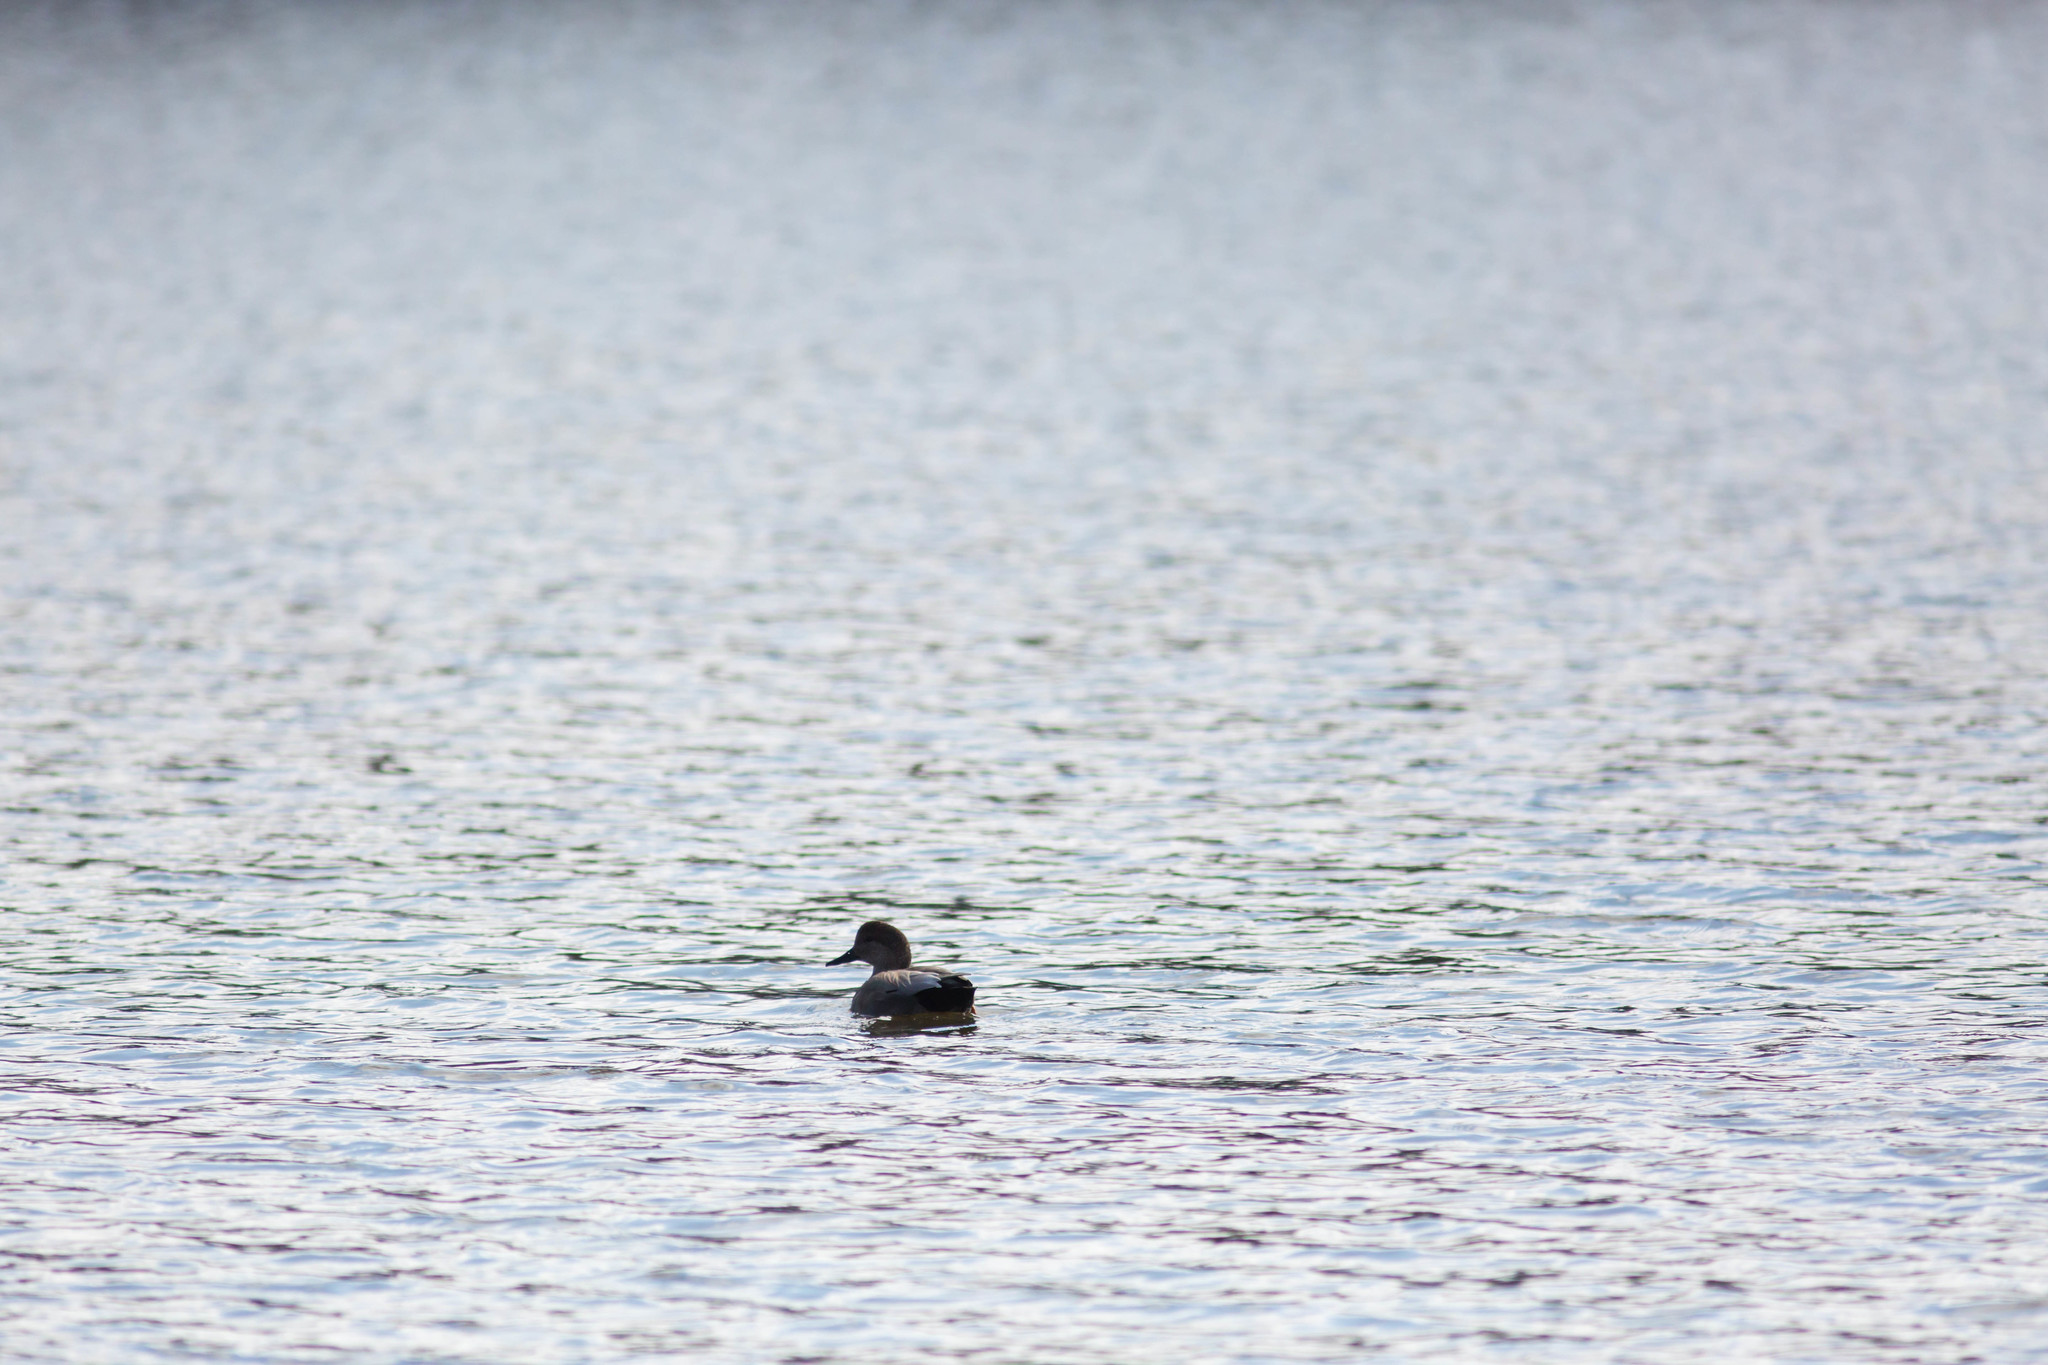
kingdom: Animalia
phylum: Chordata
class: Aves
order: Anseriformes
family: Anatidae
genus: Mareca
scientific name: Mareca strepera
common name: Gadwall
